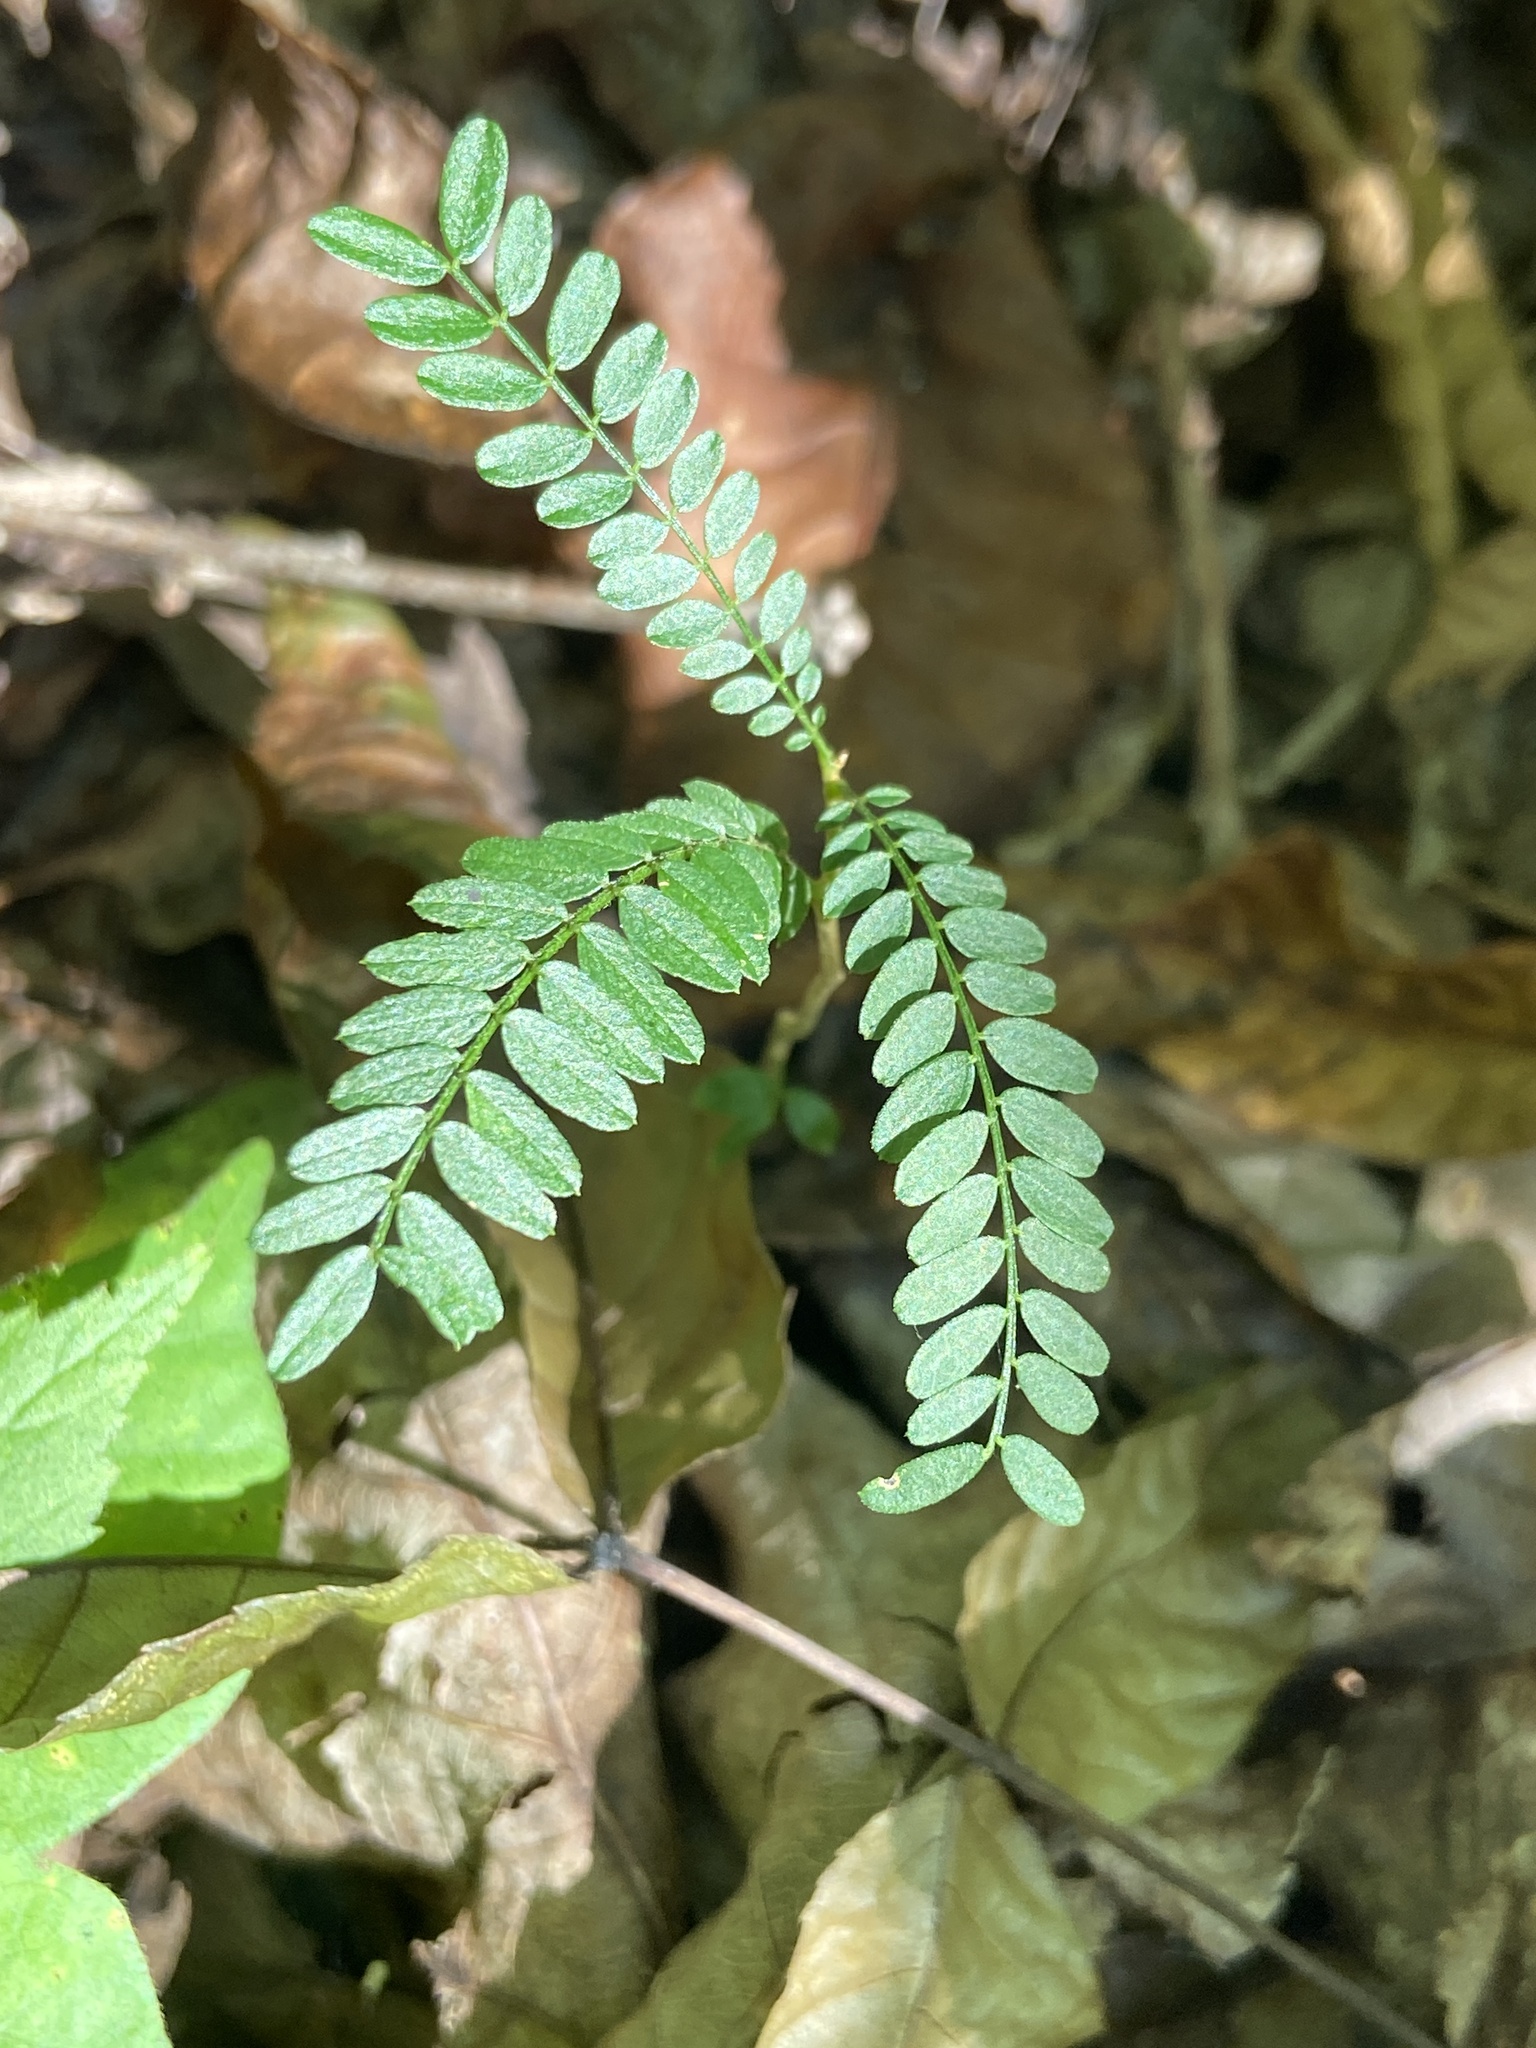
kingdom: Plantae
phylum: Tracheophyta
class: Magnoliopsida
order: Fabales
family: Fabaceae
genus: Gleditsia
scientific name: Gleditsia triacanthos
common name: Common honeylocust
